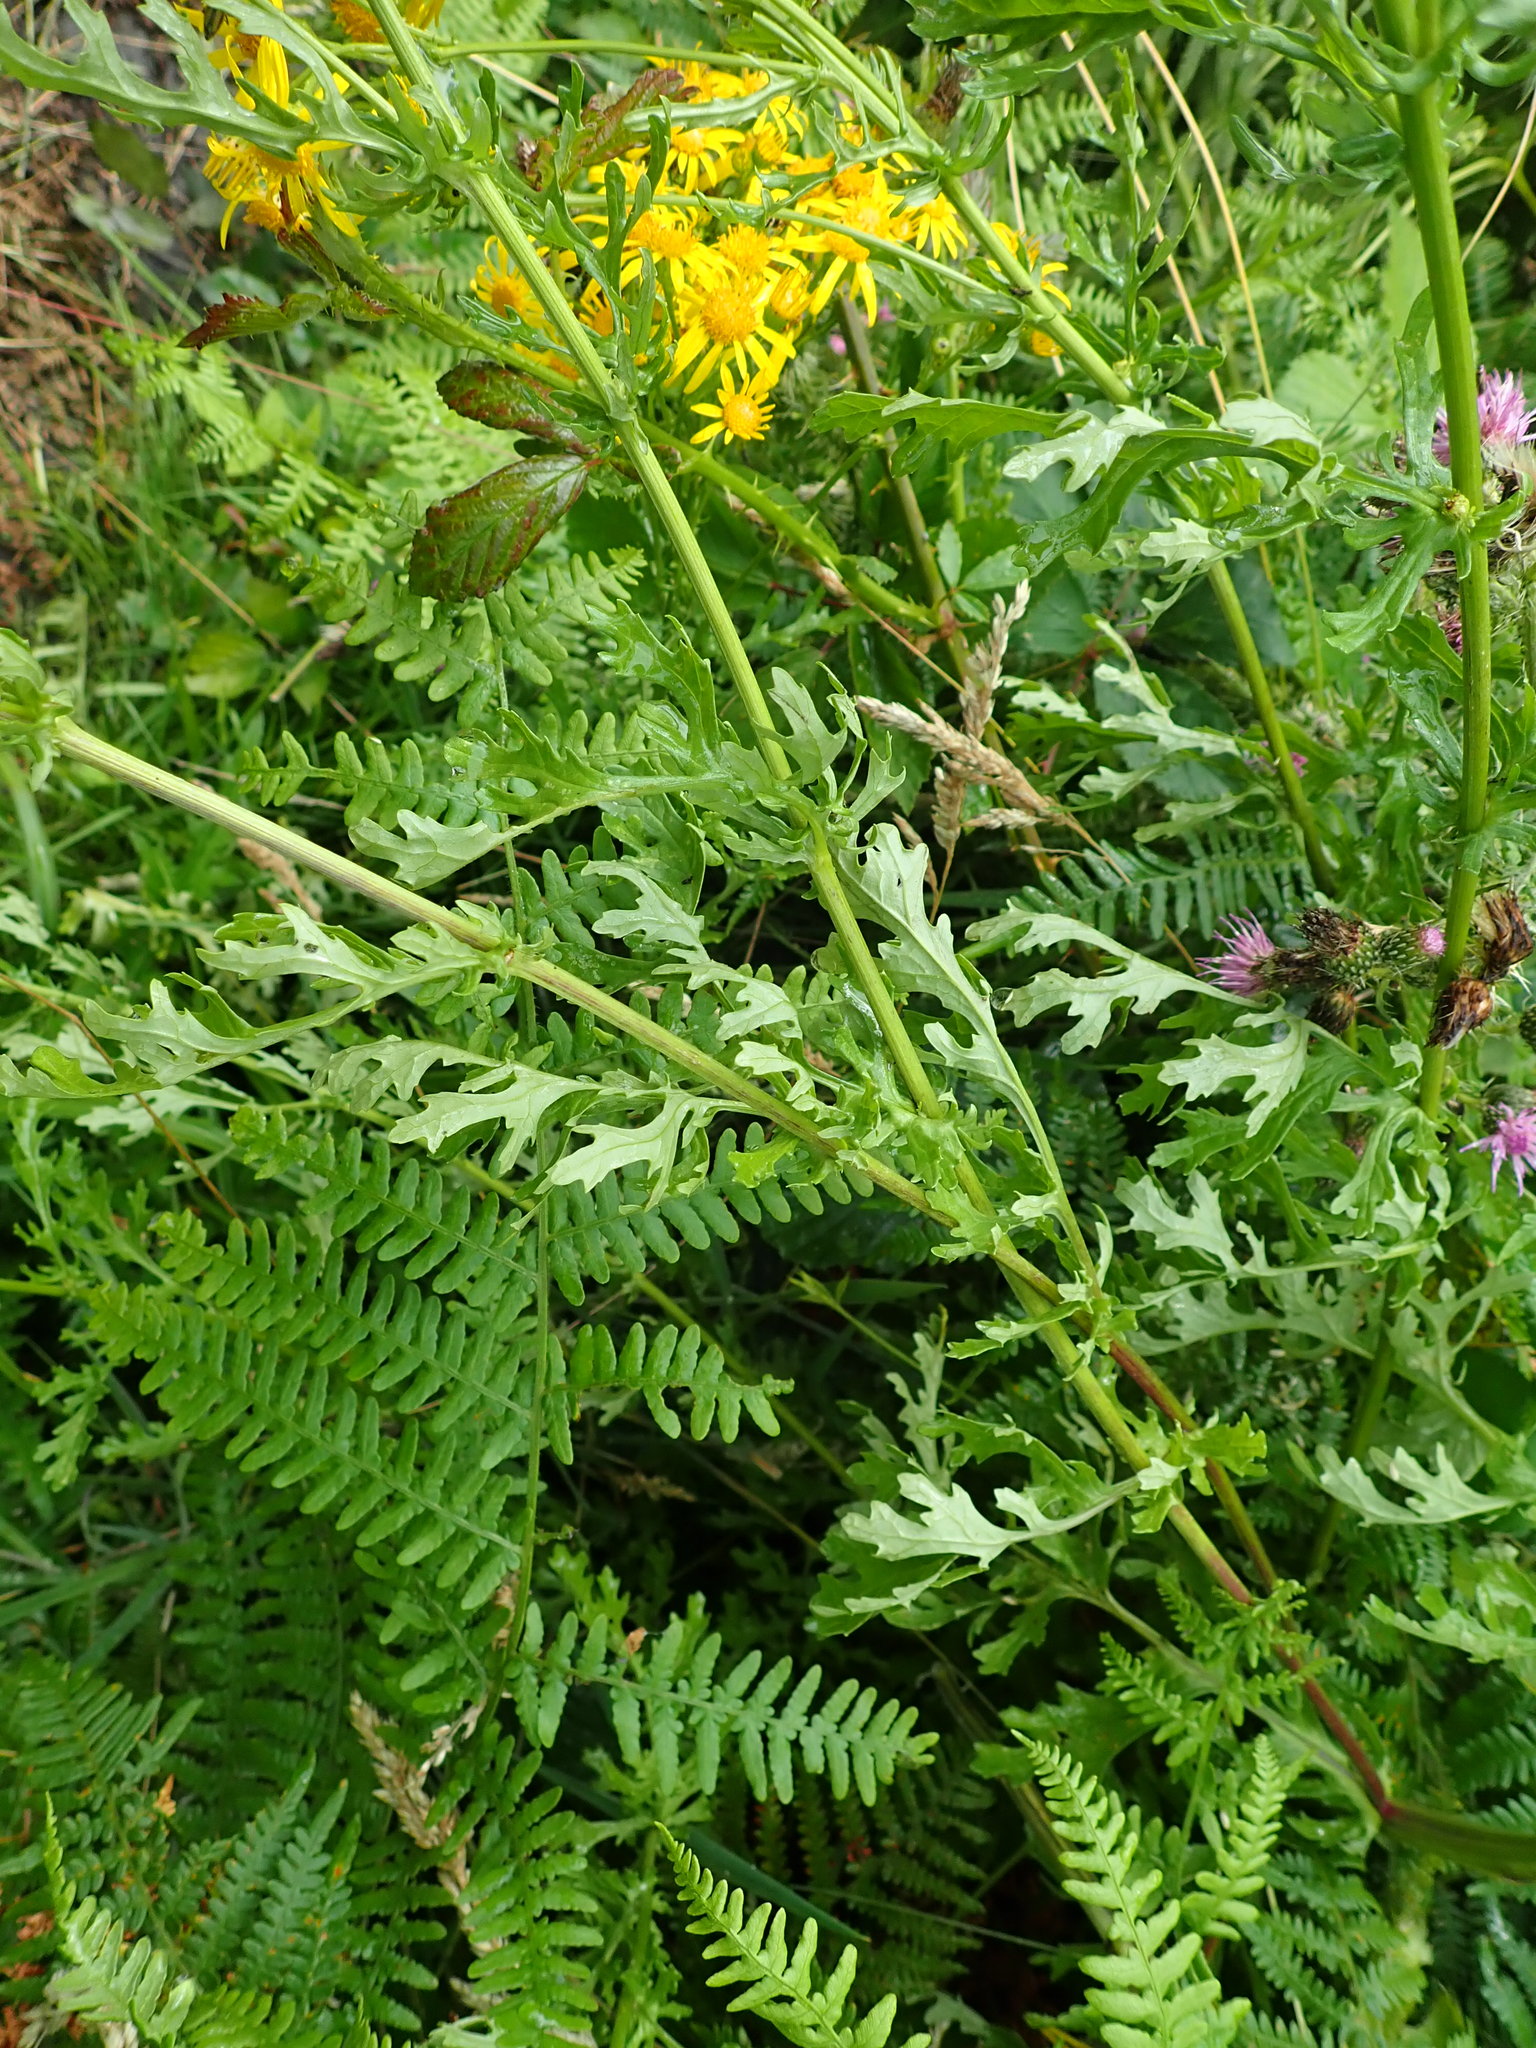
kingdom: Plantae
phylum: Tracheophyta
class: Magnoliopsida
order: Asterales
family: Asteraceae
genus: Jacobaea
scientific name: Jacobaea vulgaris
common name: Stinking willie
